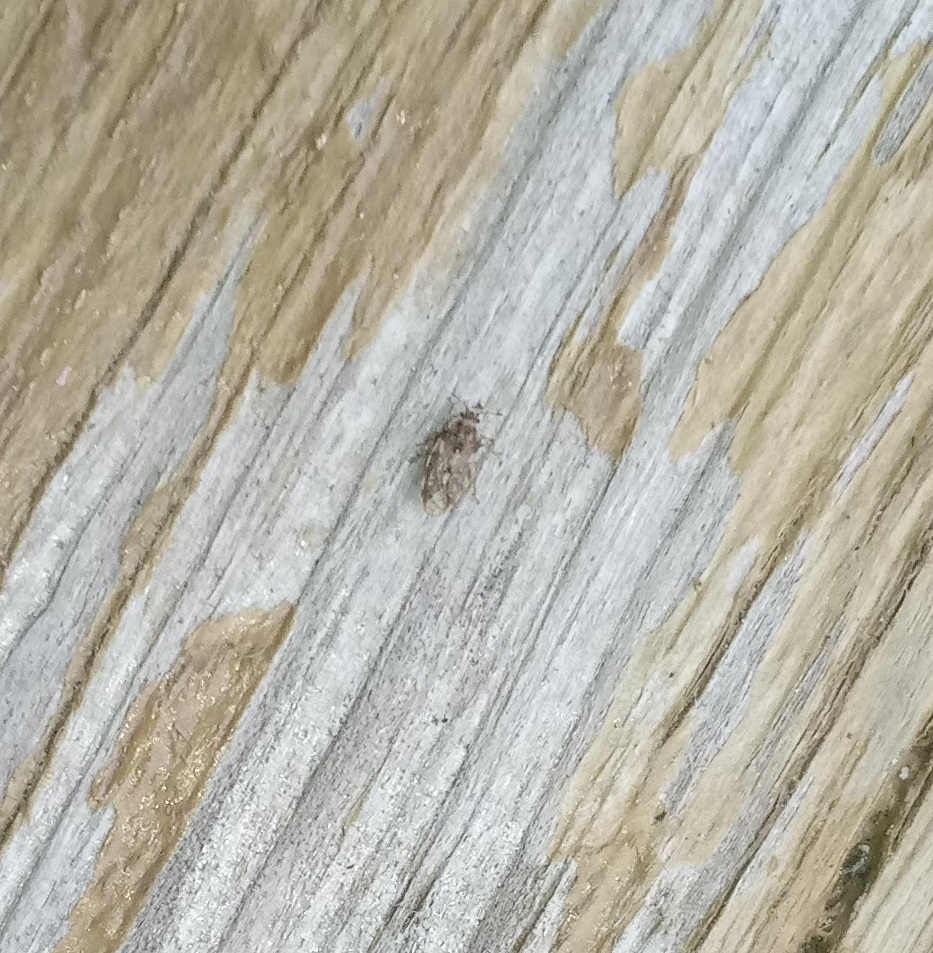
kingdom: Animalia
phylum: Arthropoda
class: Insecta
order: Hemiptera
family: Piesmatidae
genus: Parapiesma
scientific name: Parapiesma cinereum
